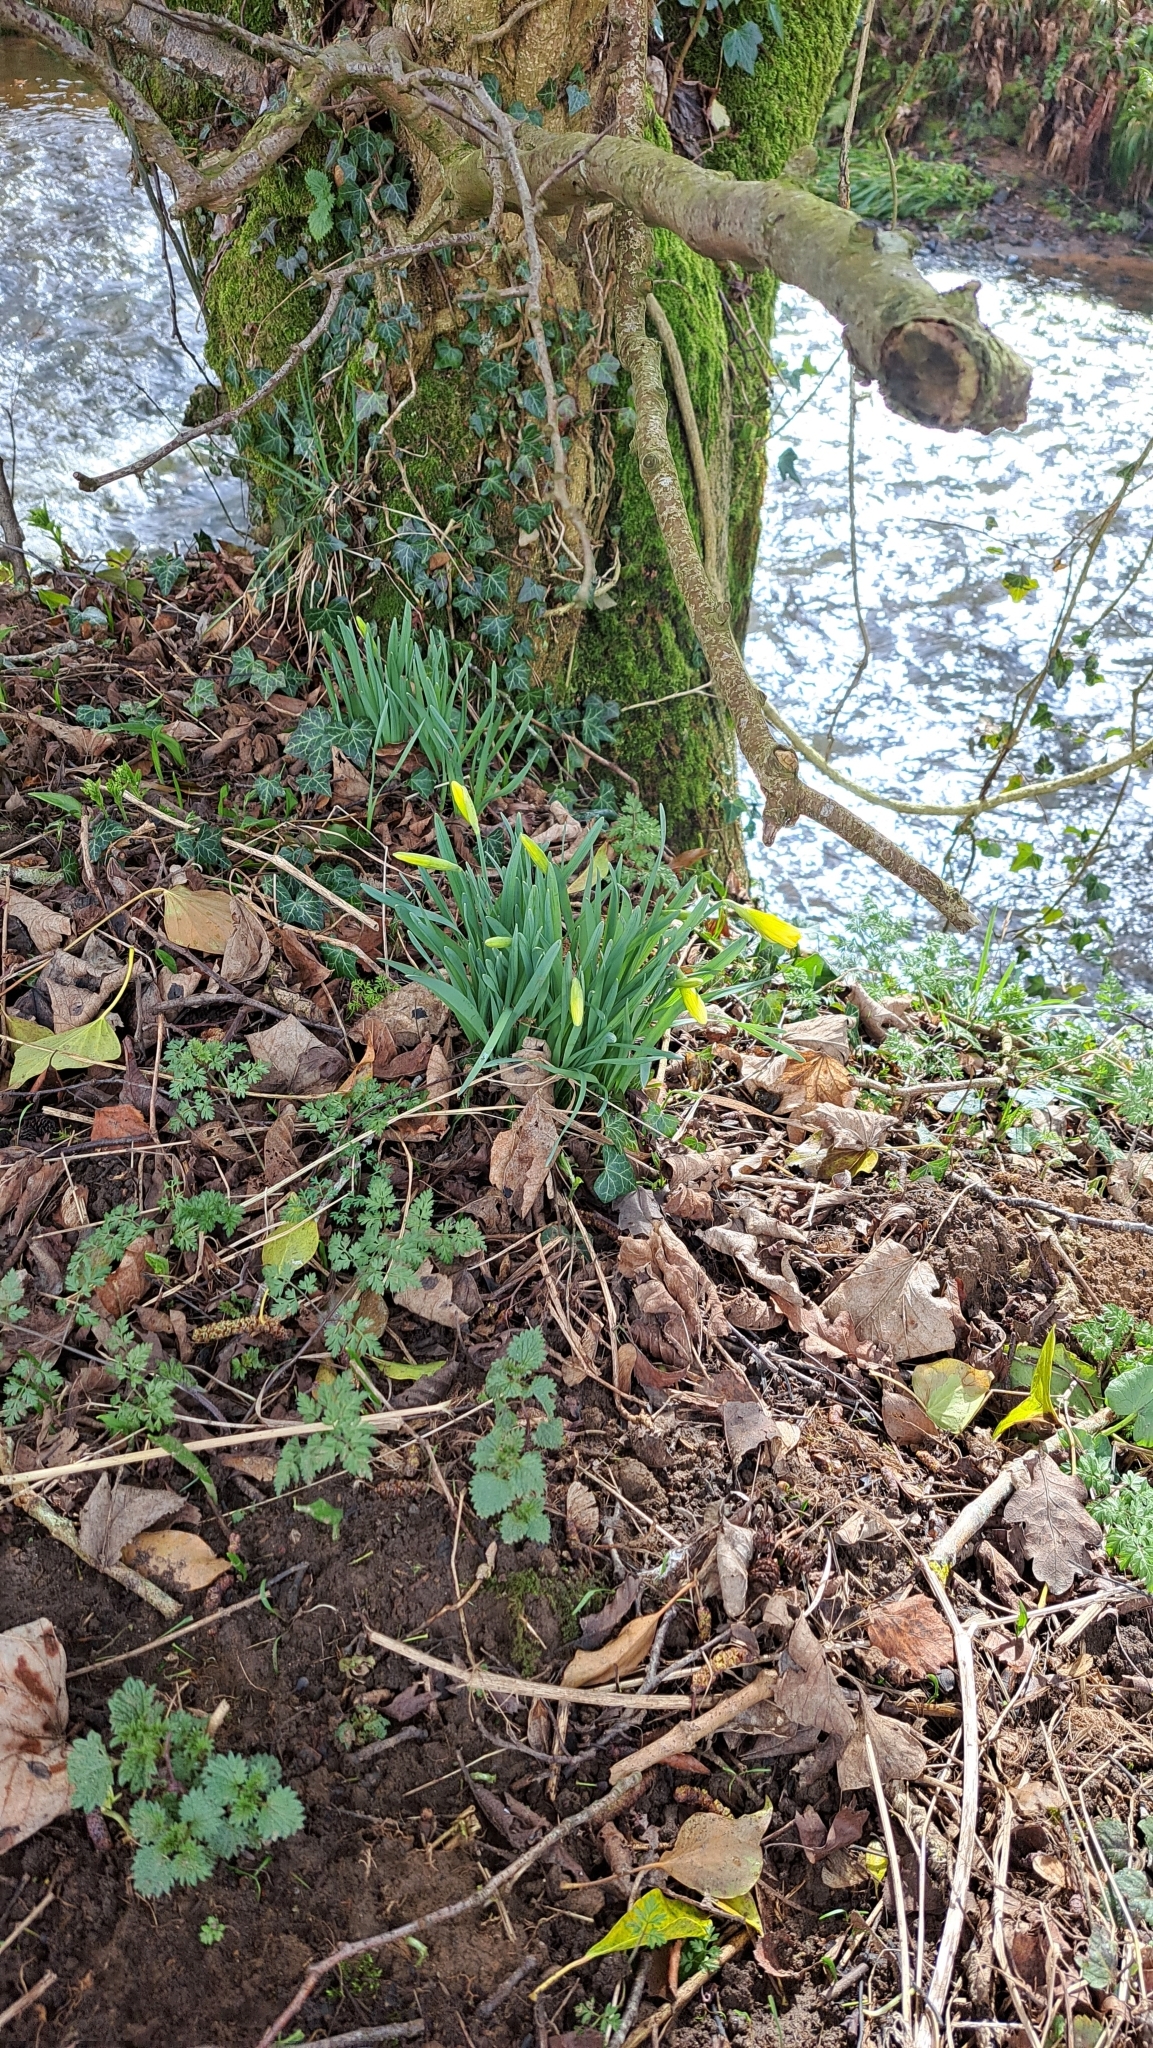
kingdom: Plantae
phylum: Tracheophyta
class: Liliopsida
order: Asparagales
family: Amaryllidaceae
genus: Narcissus
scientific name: Narcissus pseudonarcissus
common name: Daffodil
